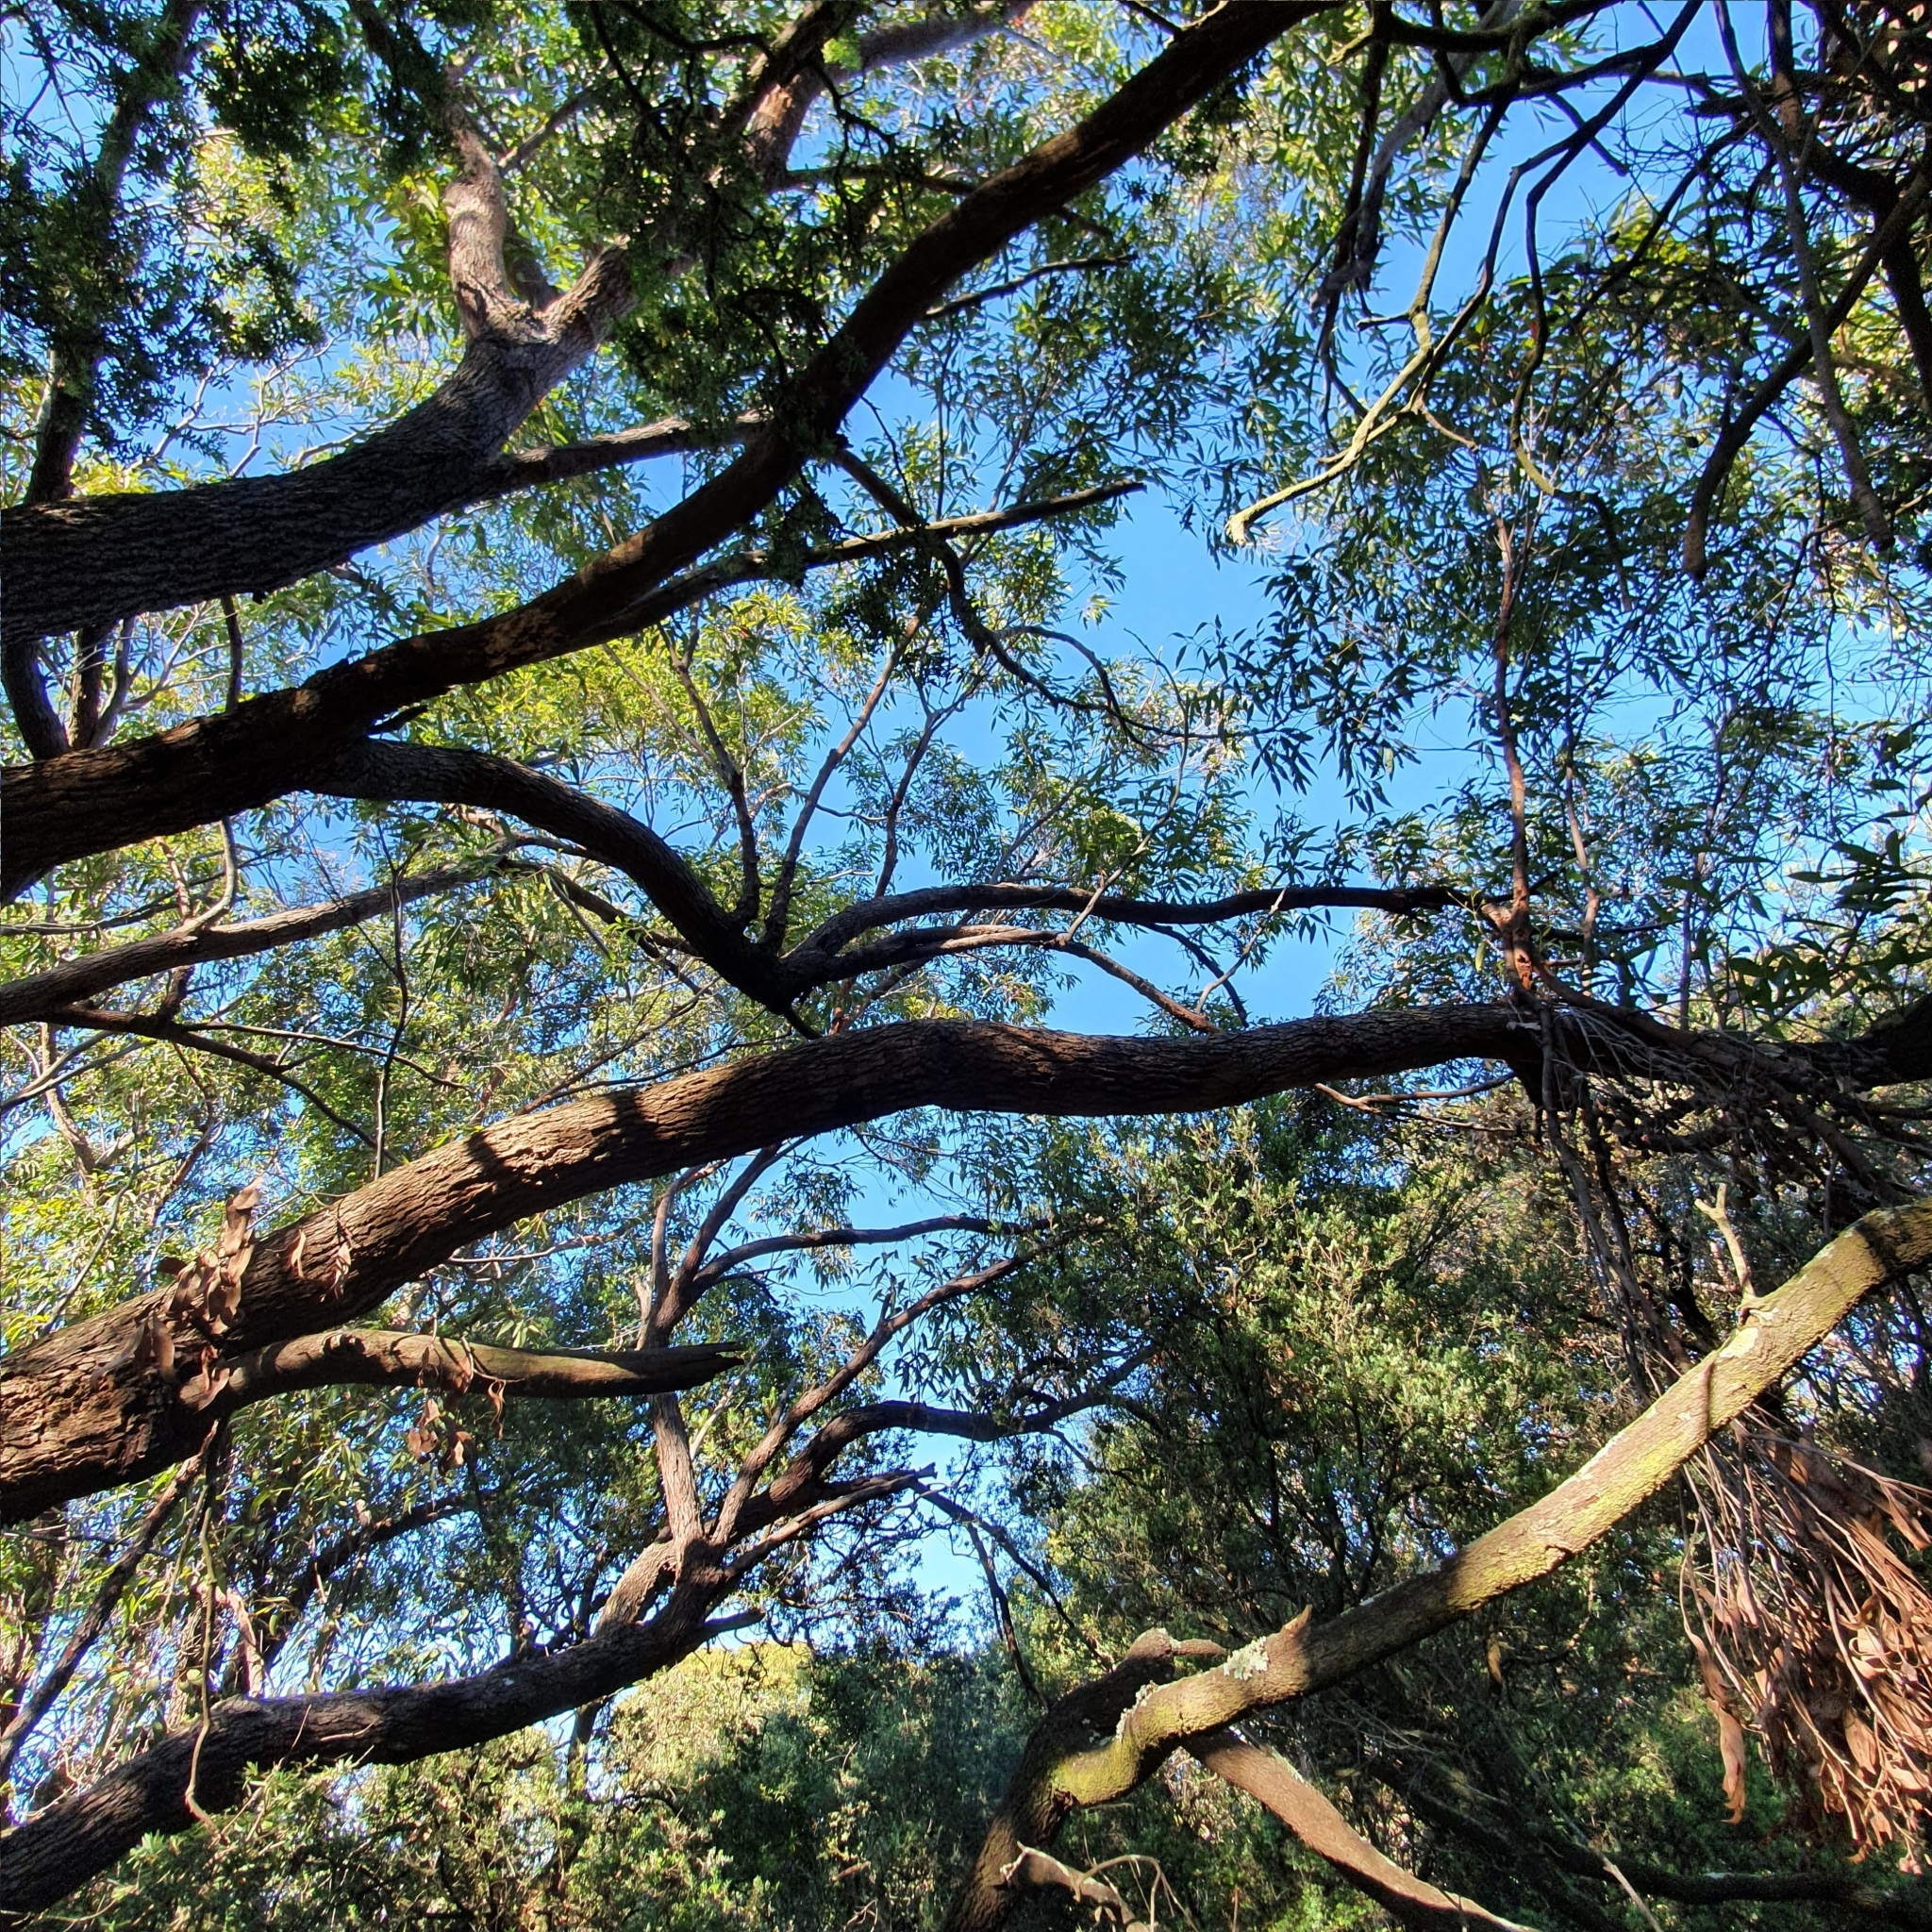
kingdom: Plantae
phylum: Tracheophyta
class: Magnoliopsida
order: Myrtales
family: Myrtaceae
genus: Corymbia
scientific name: Corymbia gummifera
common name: Red bloodwood
